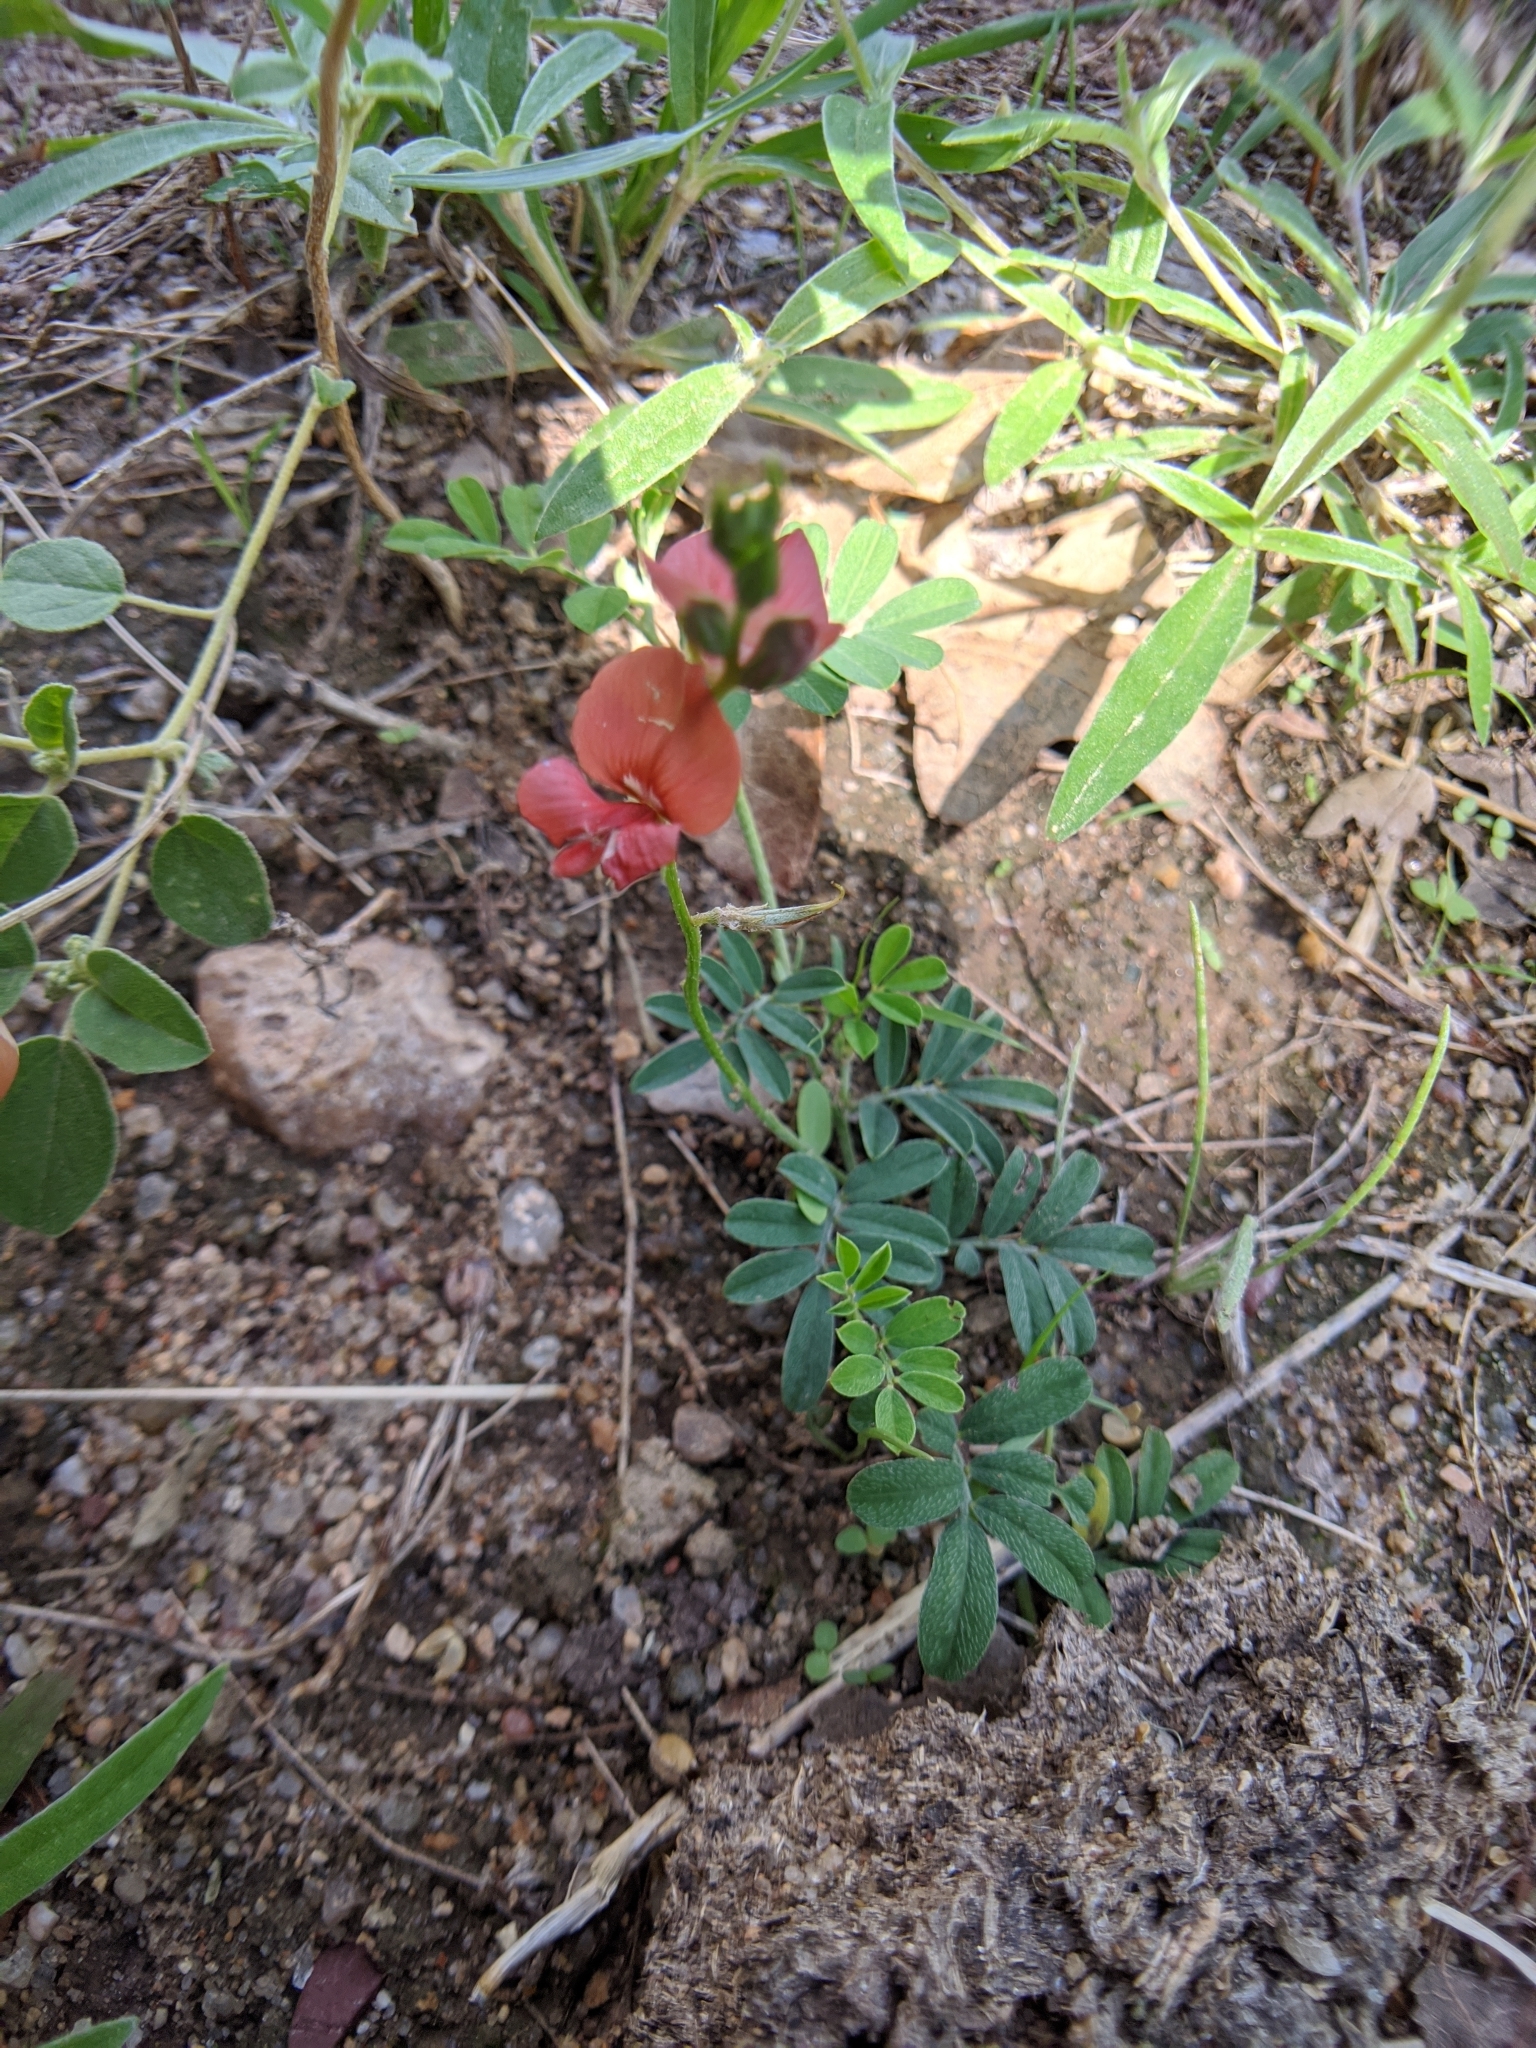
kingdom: Plantae
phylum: Tracheophyta
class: Magnoliopsida
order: Fabales
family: Fabaceae
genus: Indigofera
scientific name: Indigofera miniata
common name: Coast indigo
